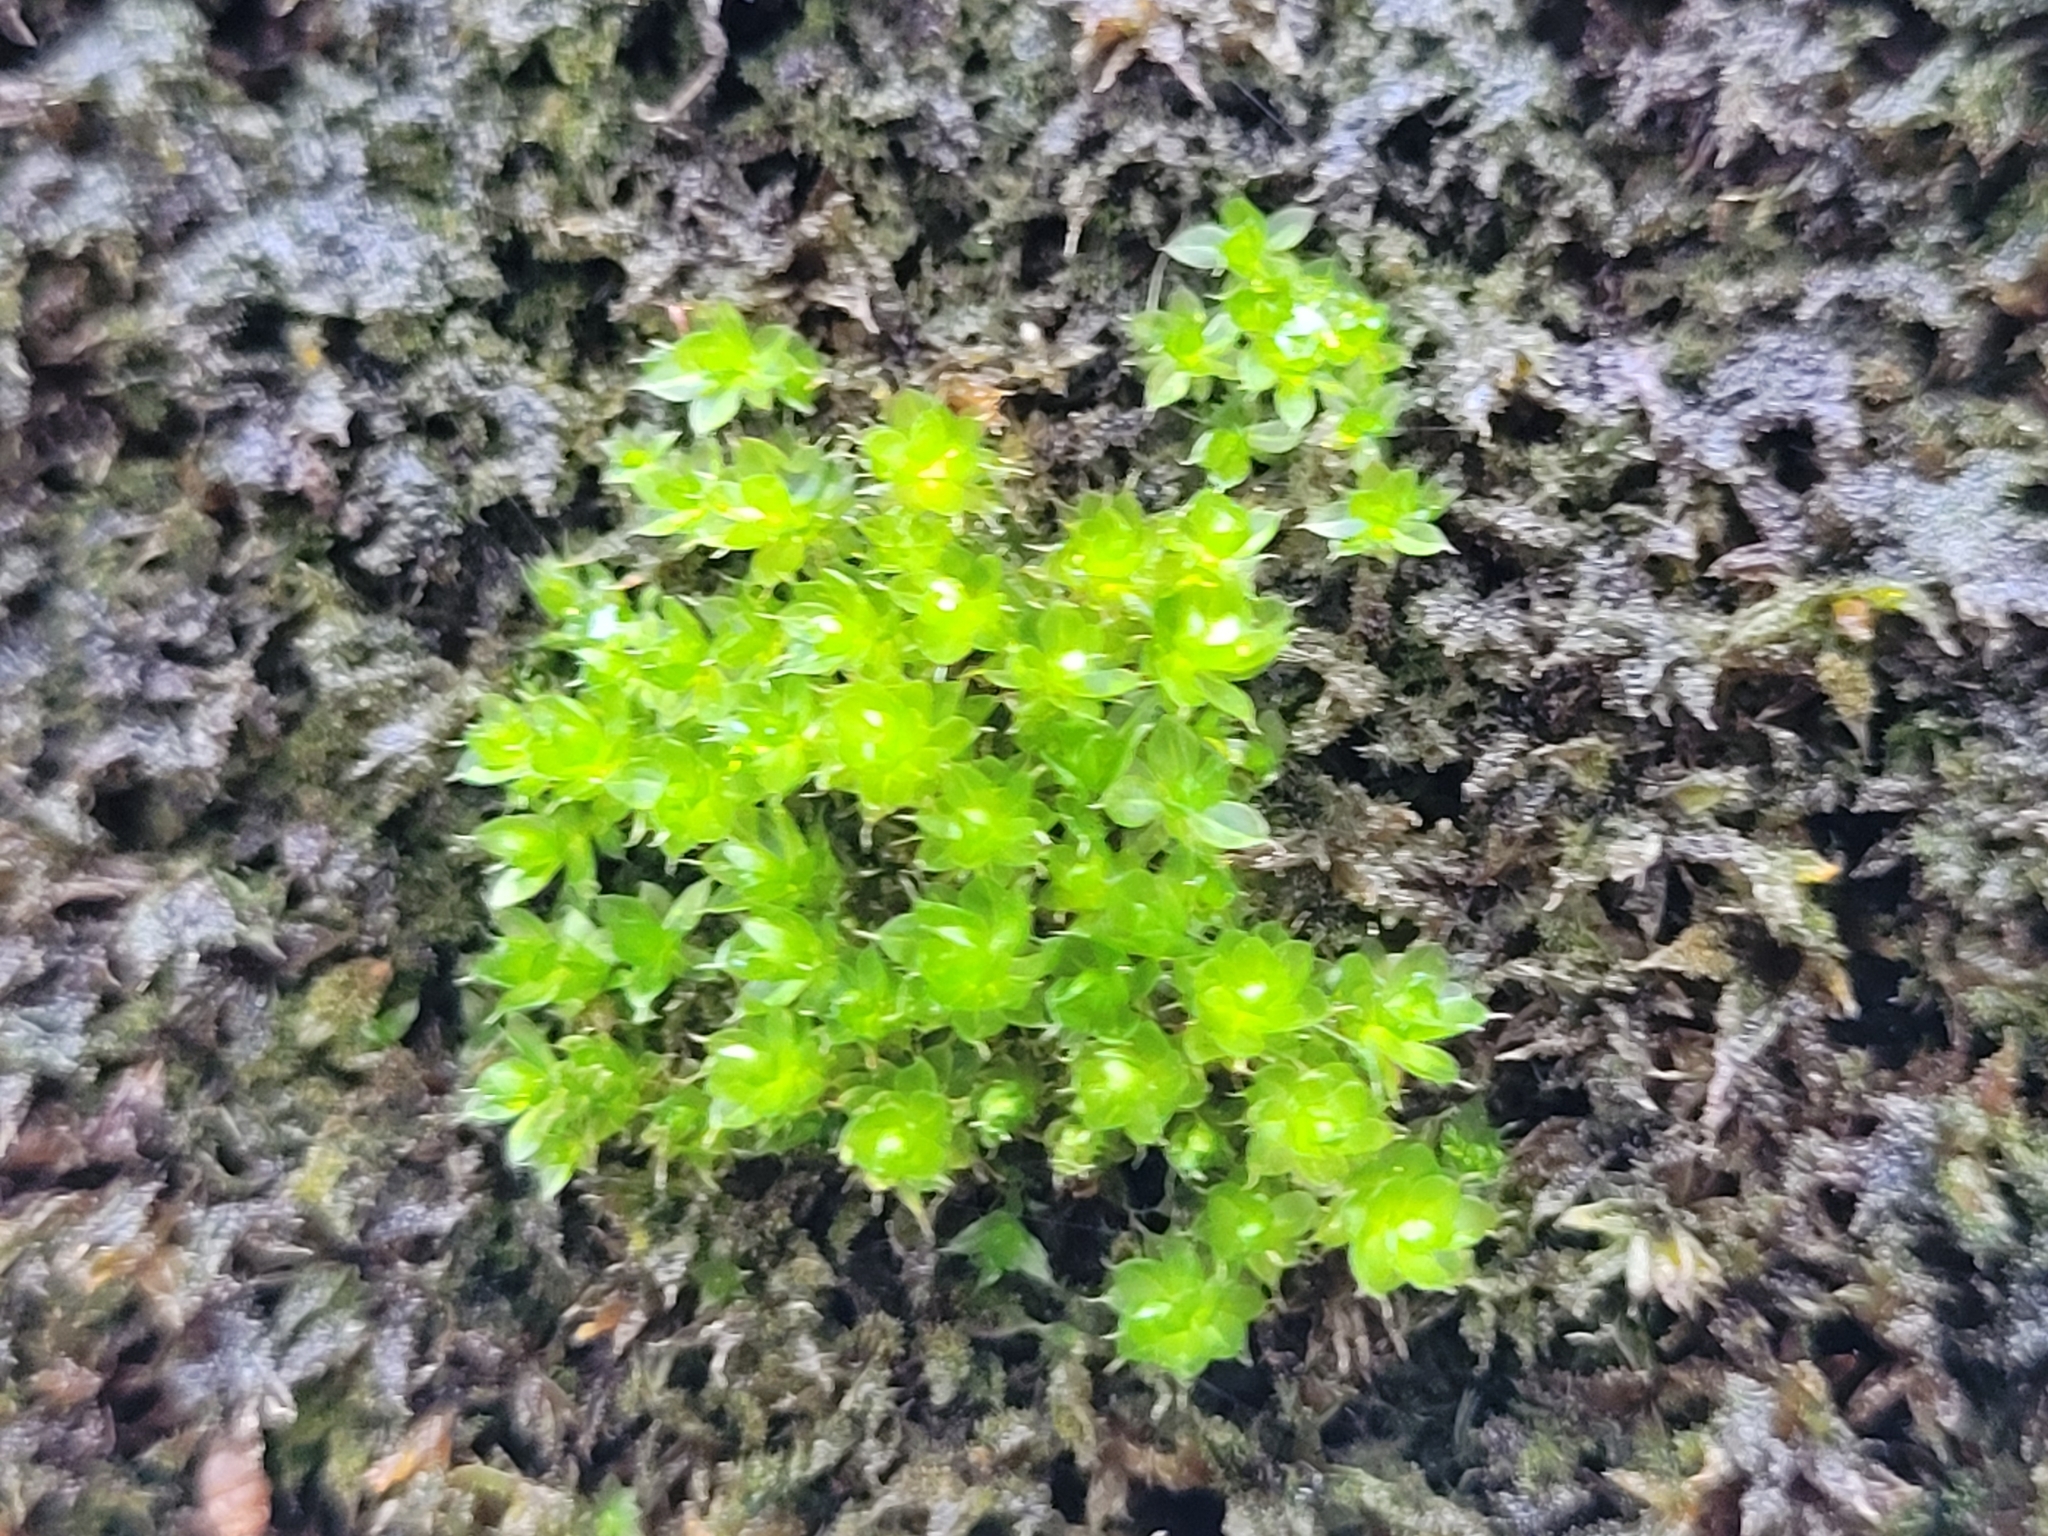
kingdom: Plantae
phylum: Bryophyta
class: Bryopsida
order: Bryales
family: Bryaceae
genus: Rosulabryum
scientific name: Rosulabryum capillare
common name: Capillary thread-moss
